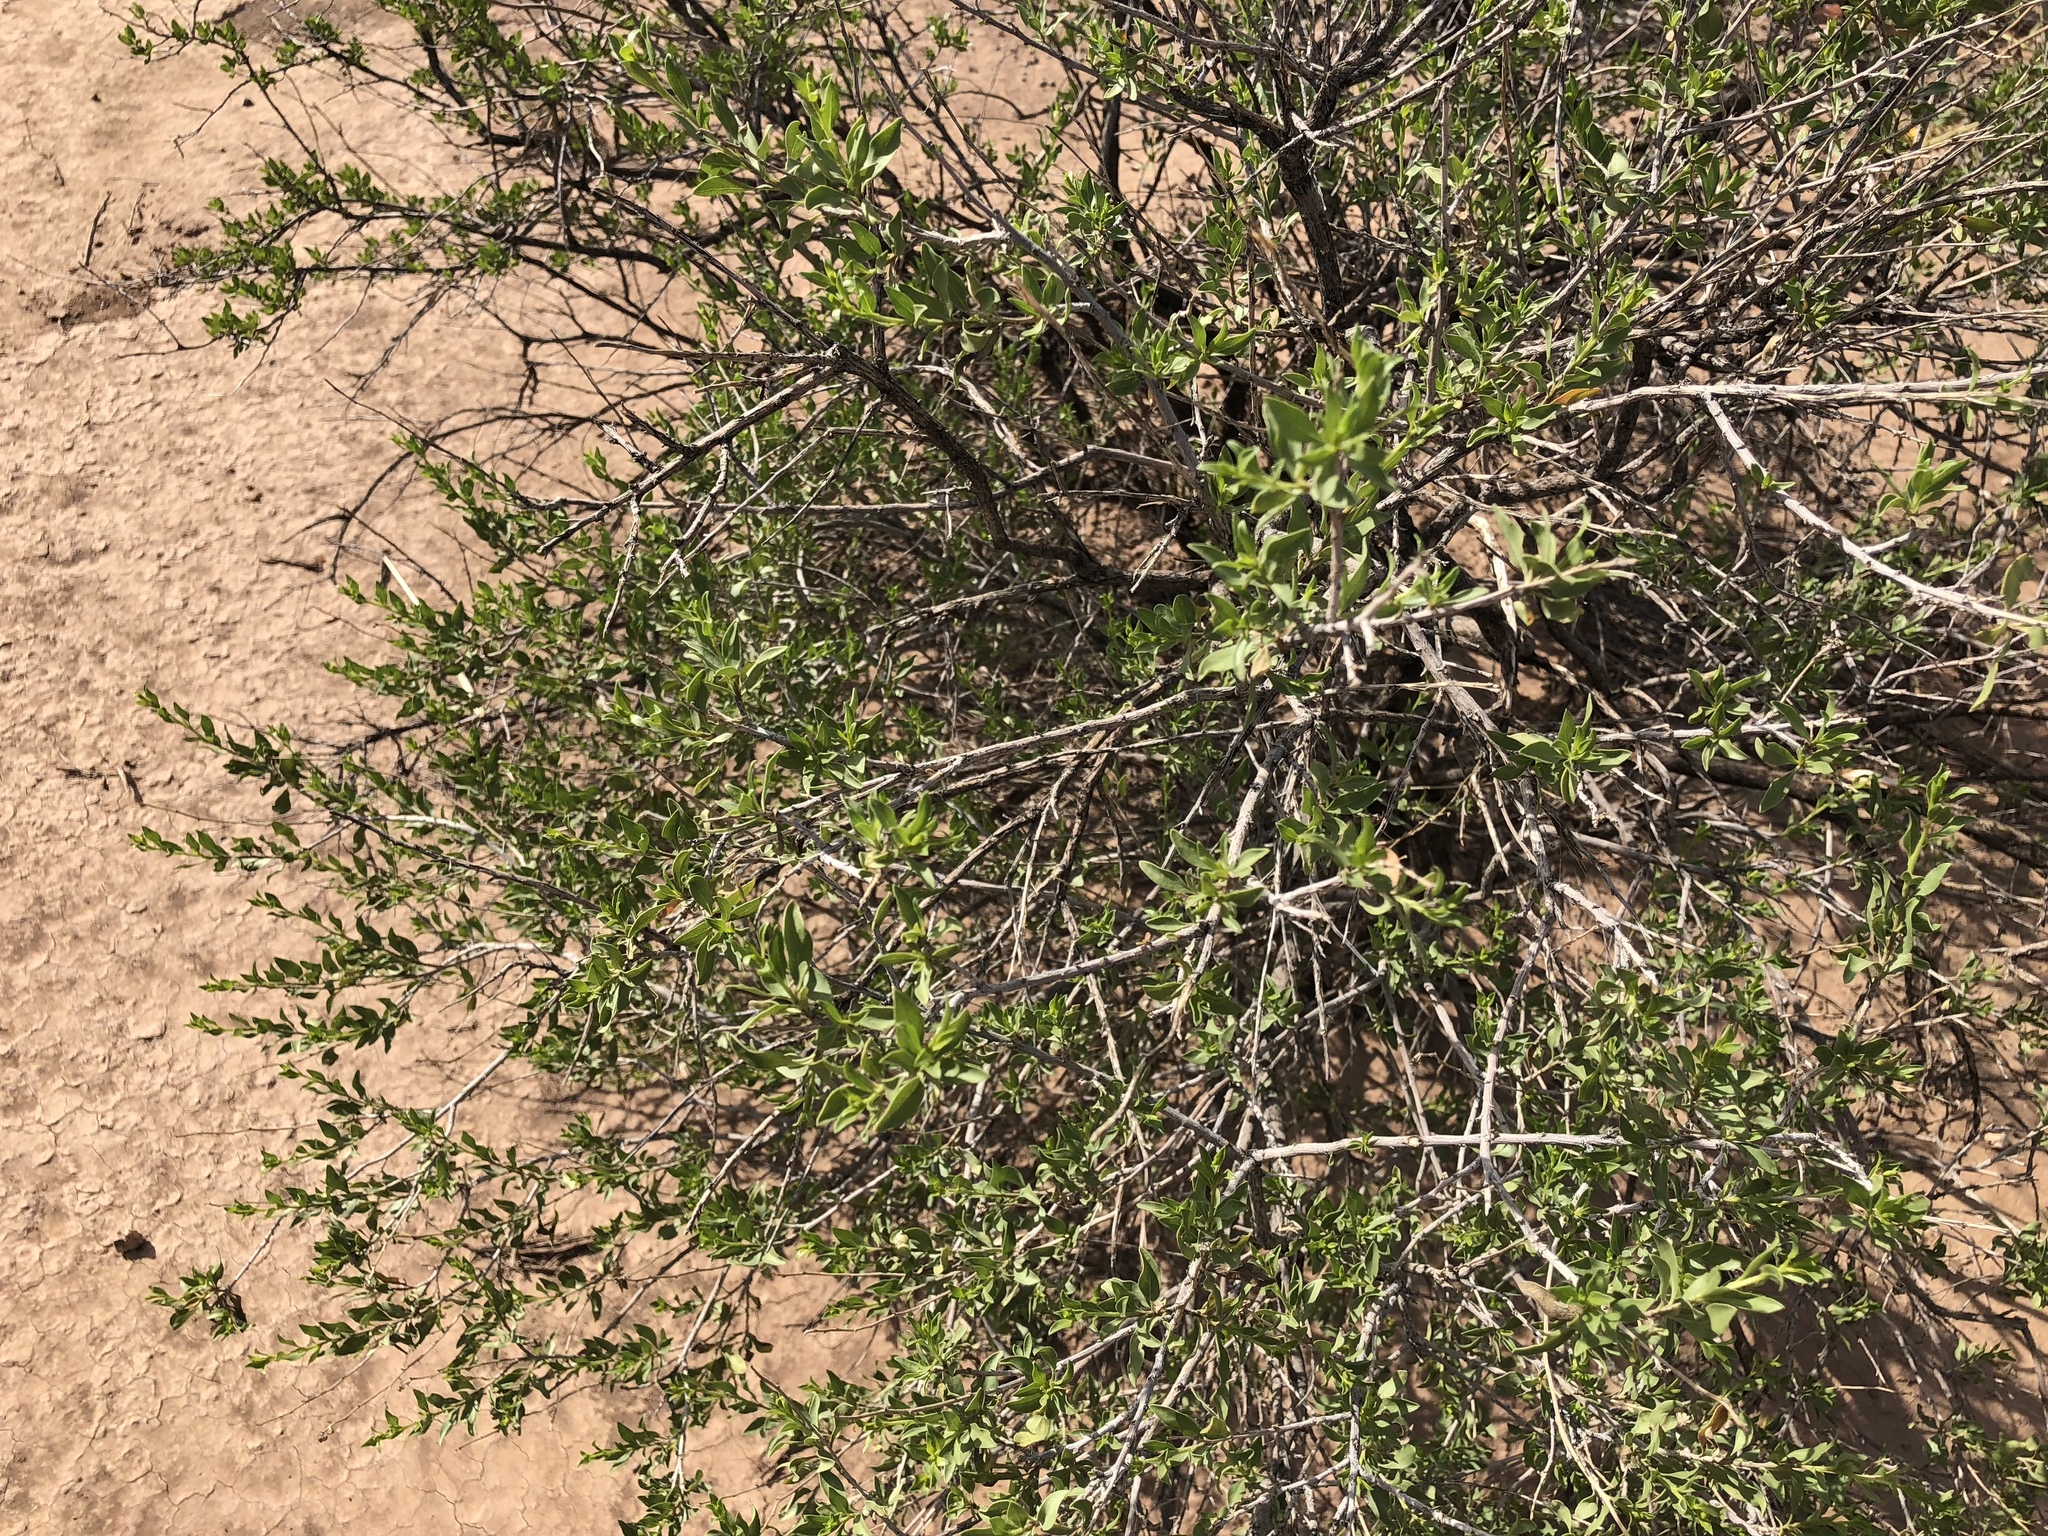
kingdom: Plantae
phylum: Tracheophyta
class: Magnoliopsida
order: Asterales
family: Asteraceae
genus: Flourensia
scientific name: Flourensia cernua
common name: Varnishbush
